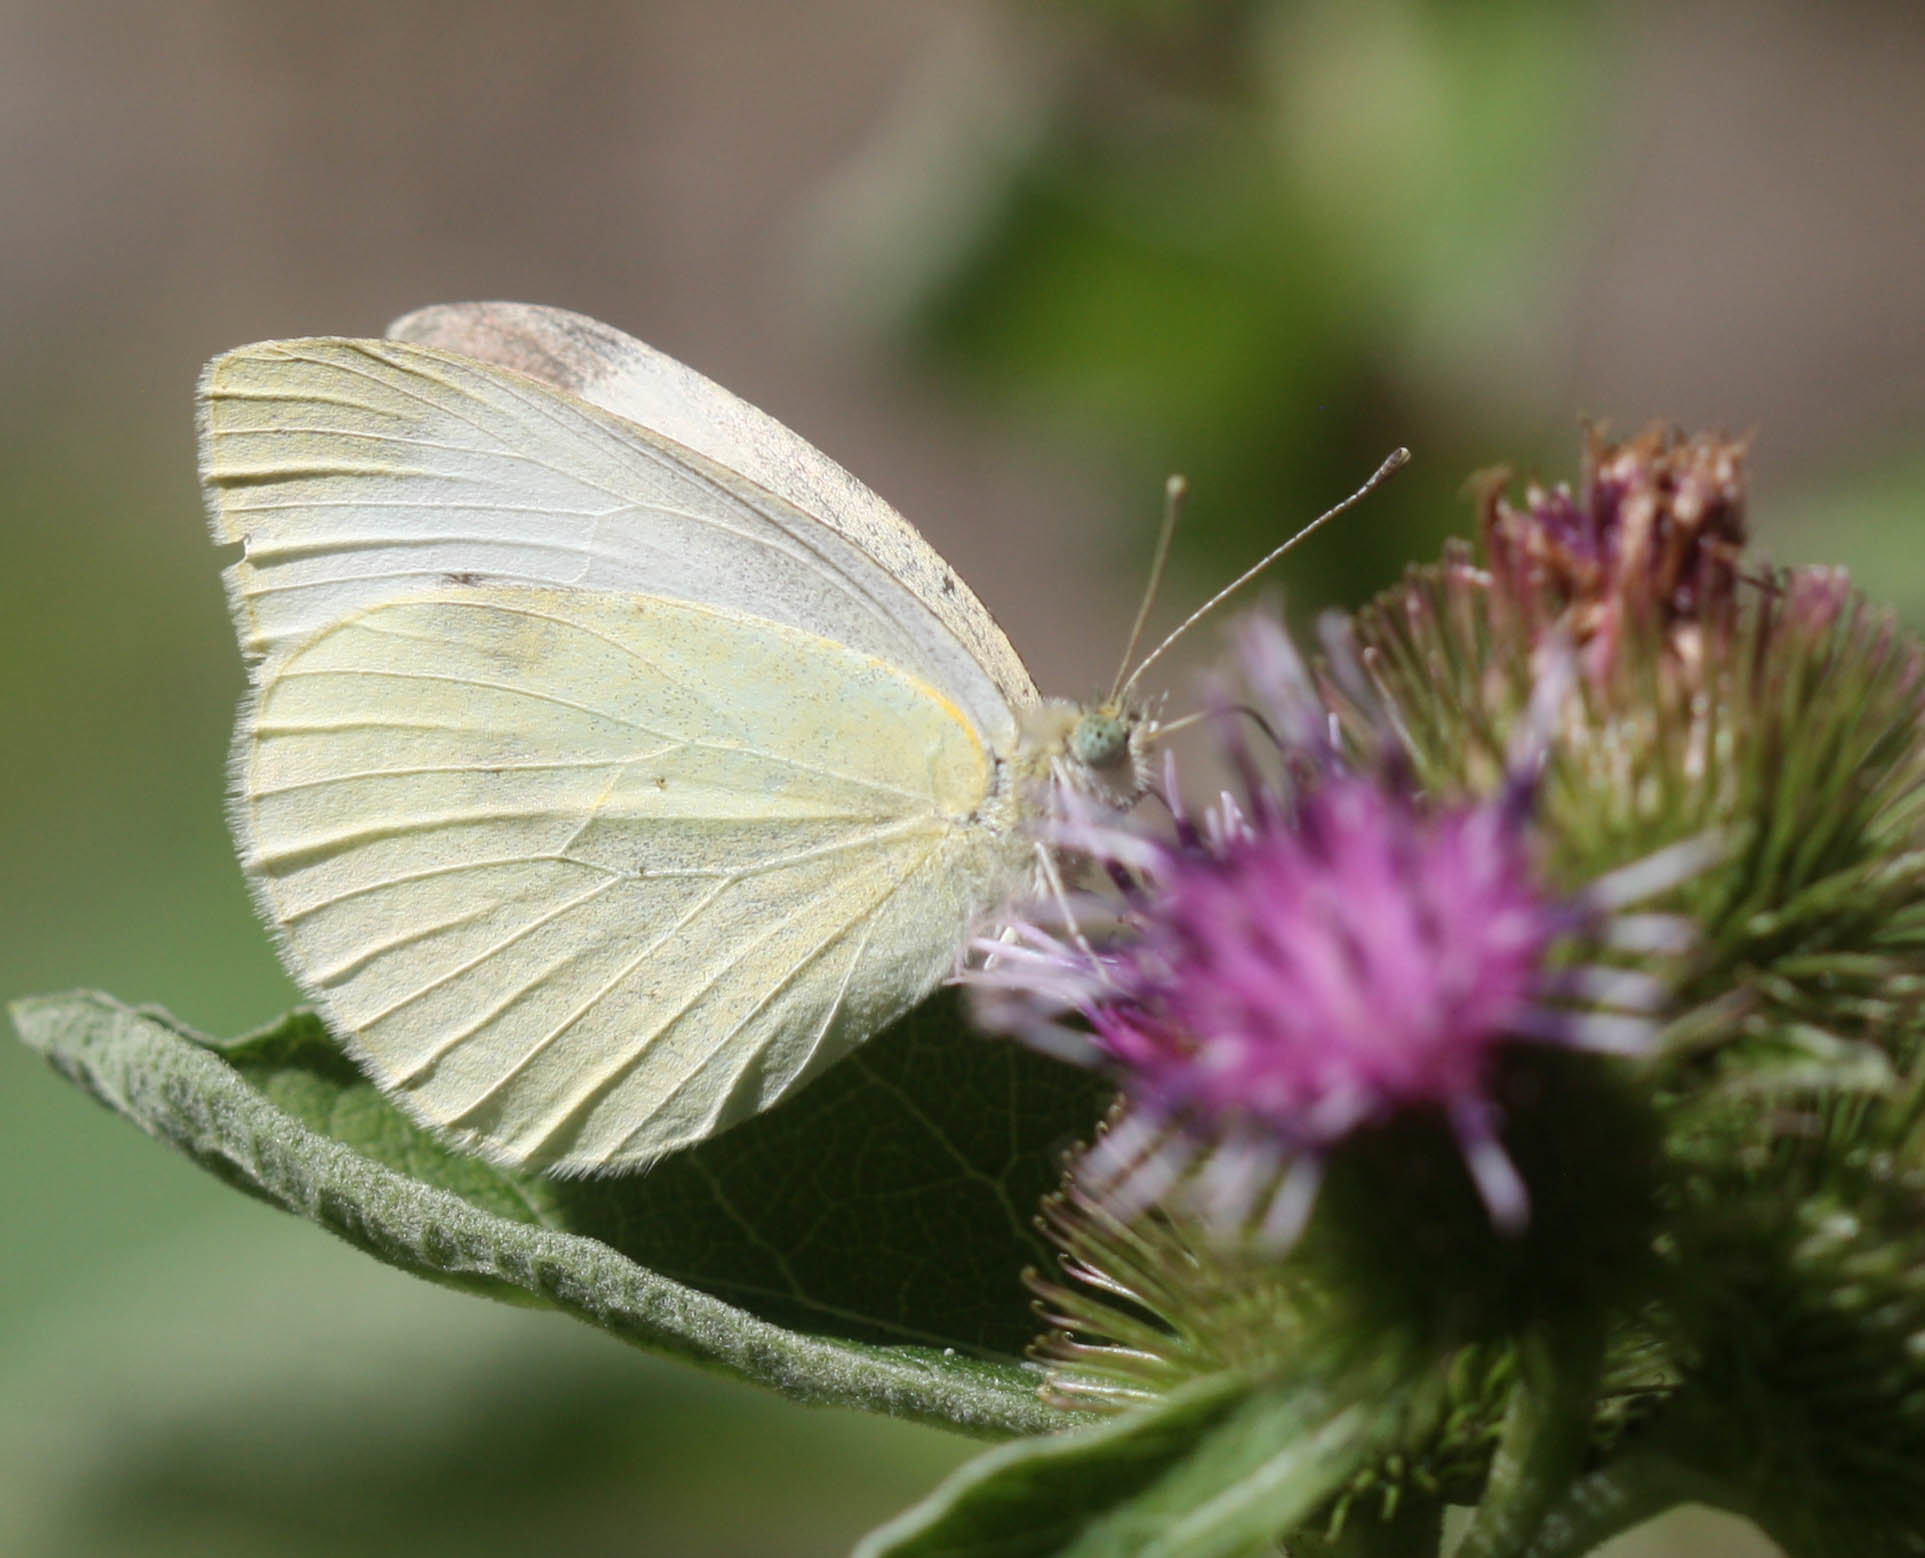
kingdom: Animalia
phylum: Arthropoda
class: Insecta
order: Lepidoptera
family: Pieridae
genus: Pieris
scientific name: Pieris rapae
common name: Small white
